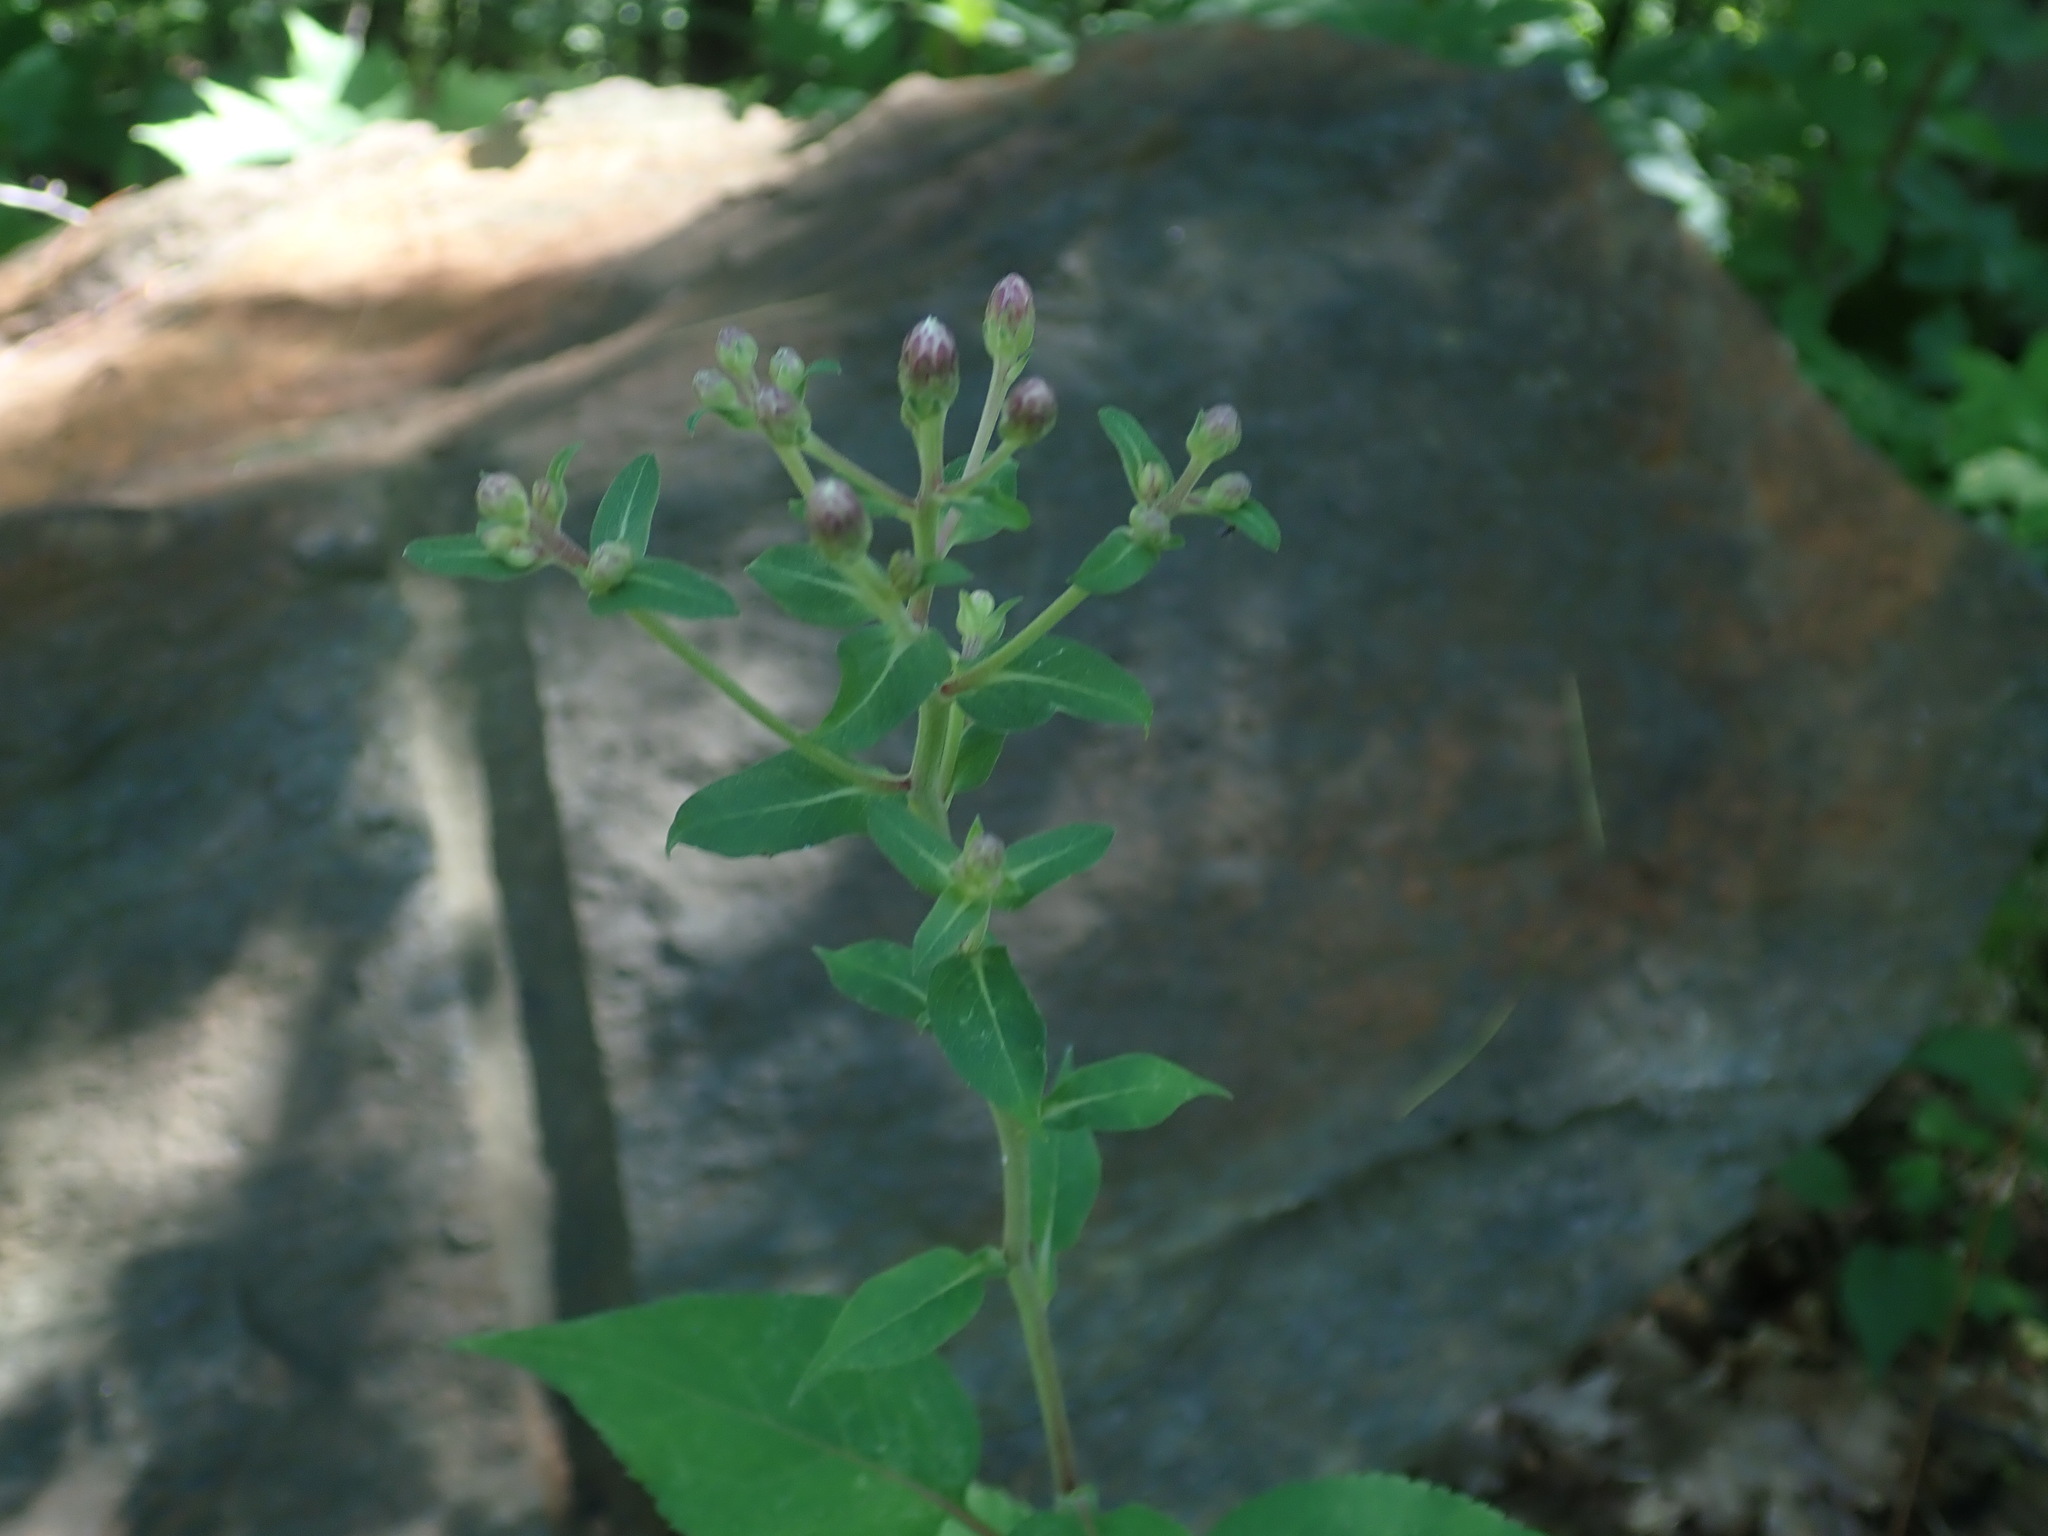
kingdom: Plantae
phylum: Tracheophyta
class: Magnoliopsida
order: Asterales
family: Asteraceae
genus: Eurybia
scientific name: Eurybia macrophylla
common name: Big-leaved aster
